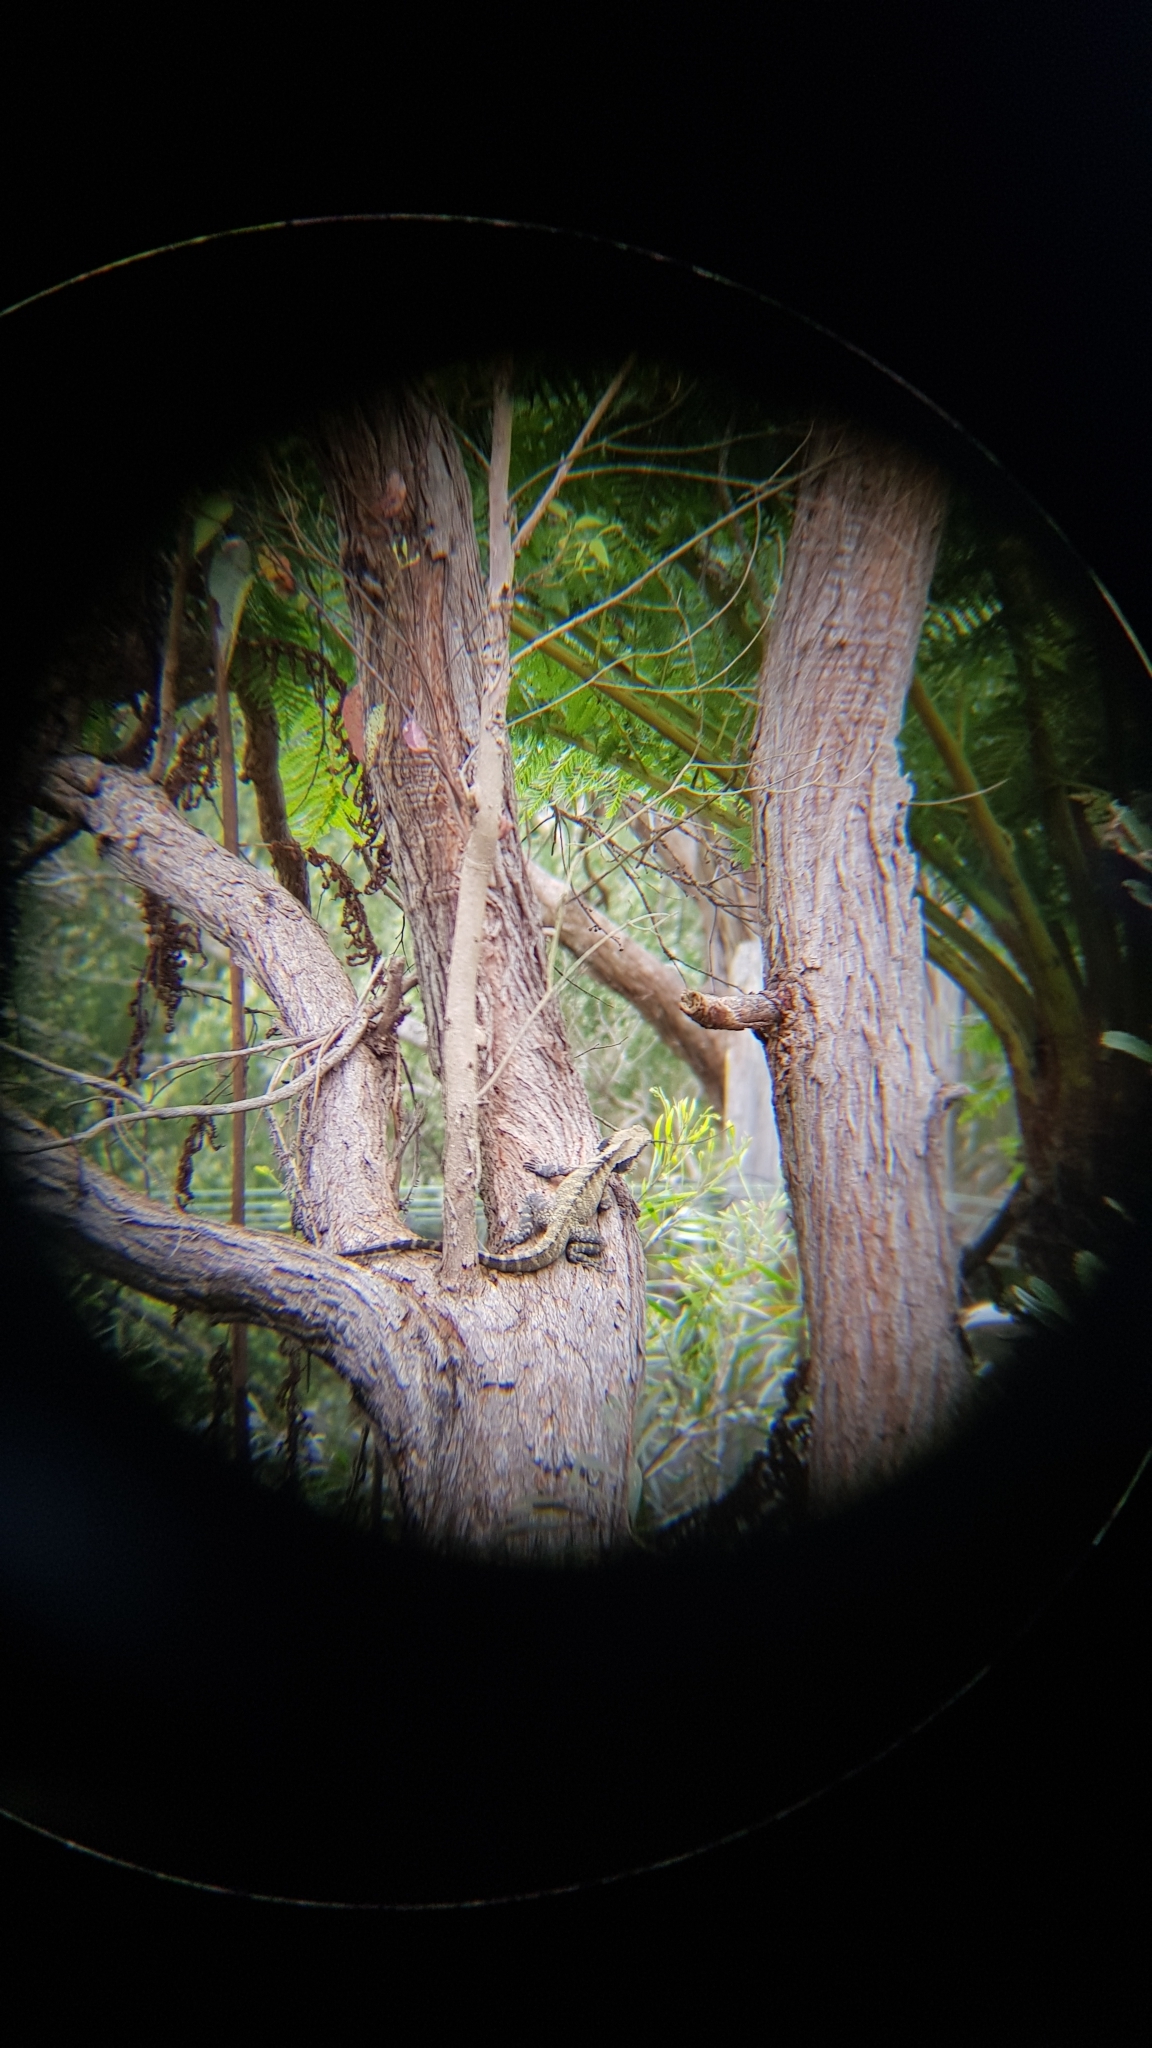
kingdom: Animalia
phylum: Chordata
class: Squamata
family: Agamidae
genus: Intellagama
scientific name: Intellagama lesueurii
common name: Eastern water dragon
